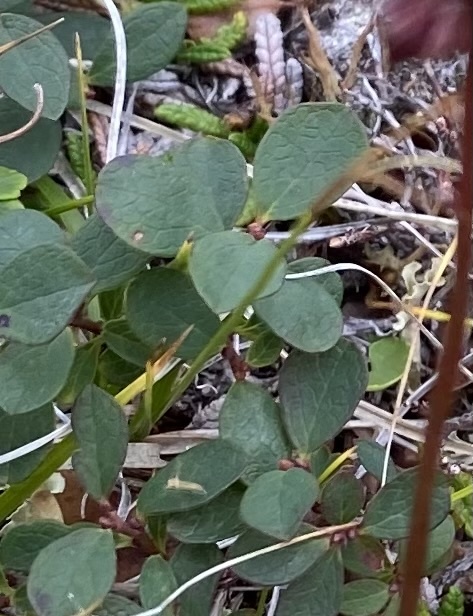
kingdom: Plantae
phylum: Tracheophyta
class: Liliopsida
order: Poales
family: Cyperaceae
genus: Carex
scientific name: Carex vaginata
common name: Sheathed sedge
